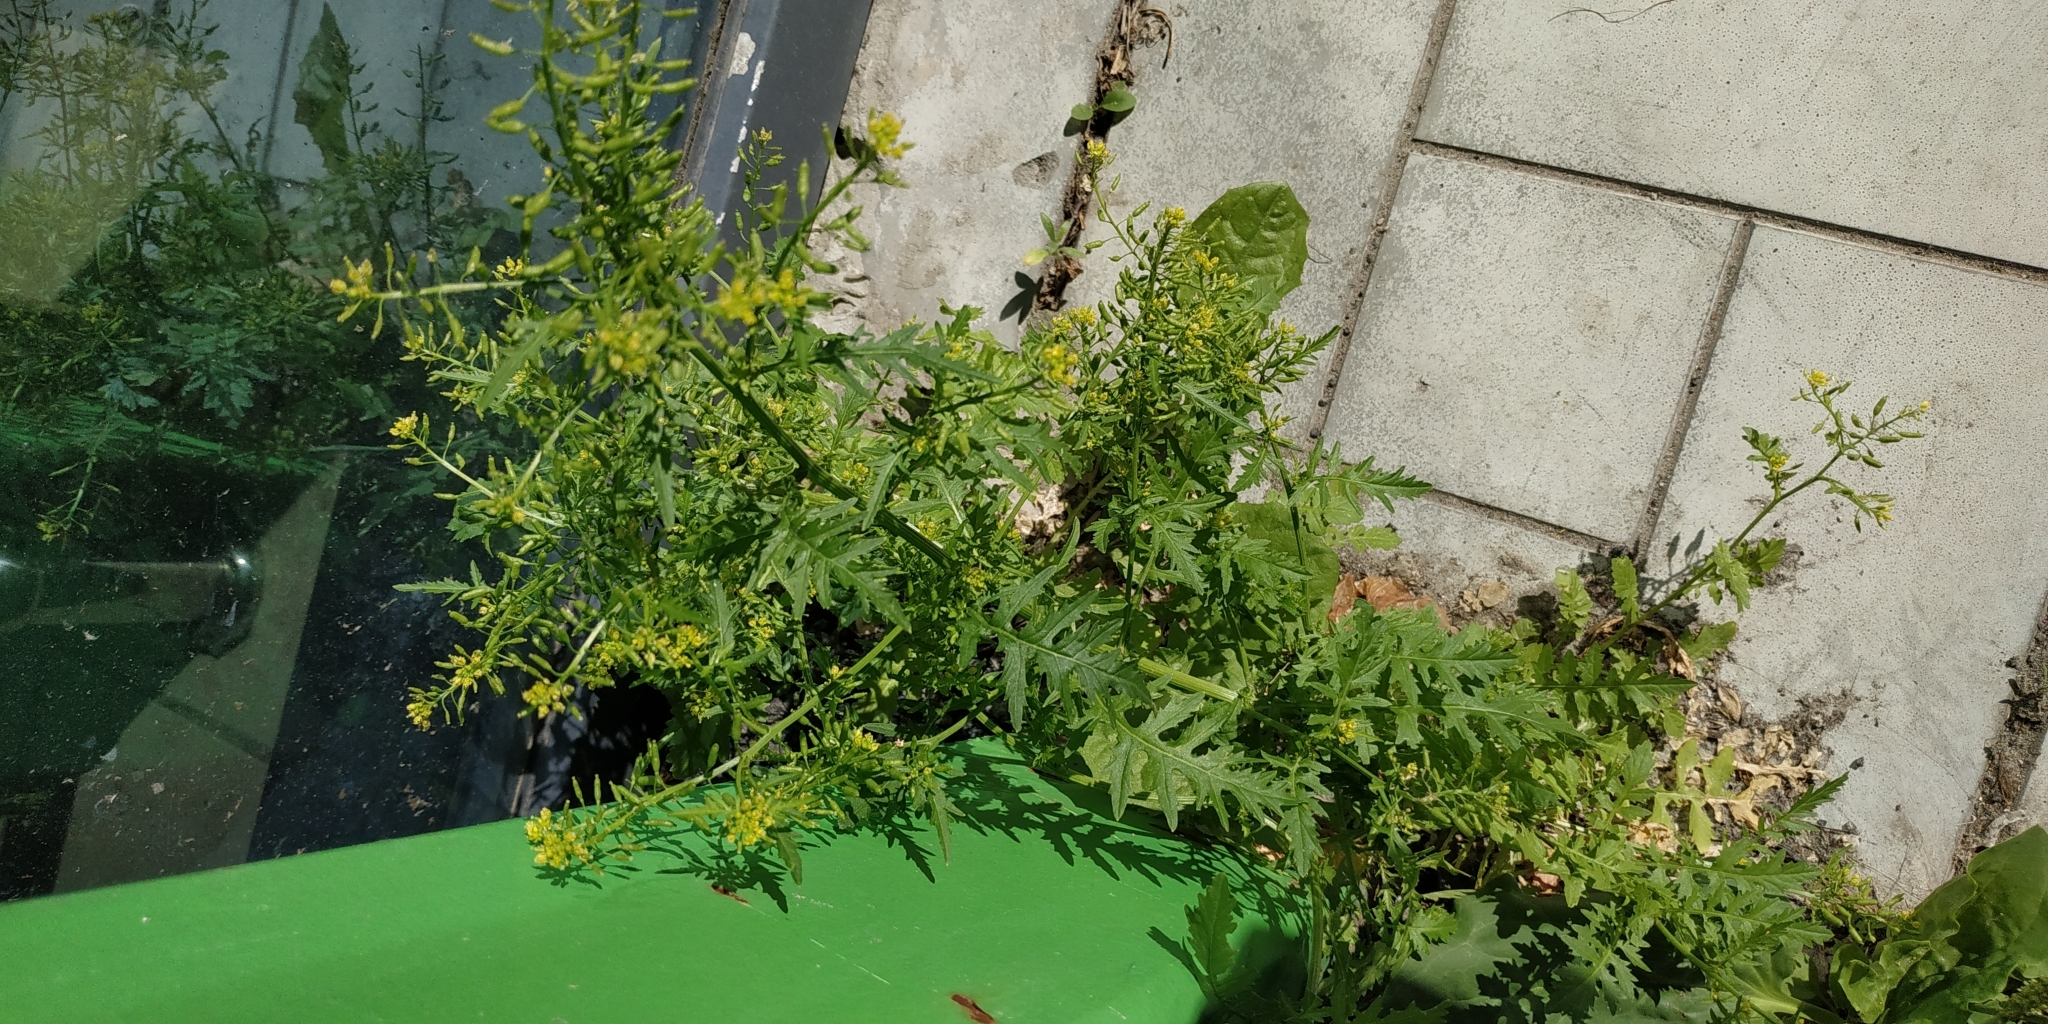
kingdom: Plantae
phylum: Tracheophyta
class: Magnoliopsida
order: Brassicales
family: Brassicaceae
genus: Rorippa
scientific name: Rorippa palustris
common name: Marsh yellow-cress
